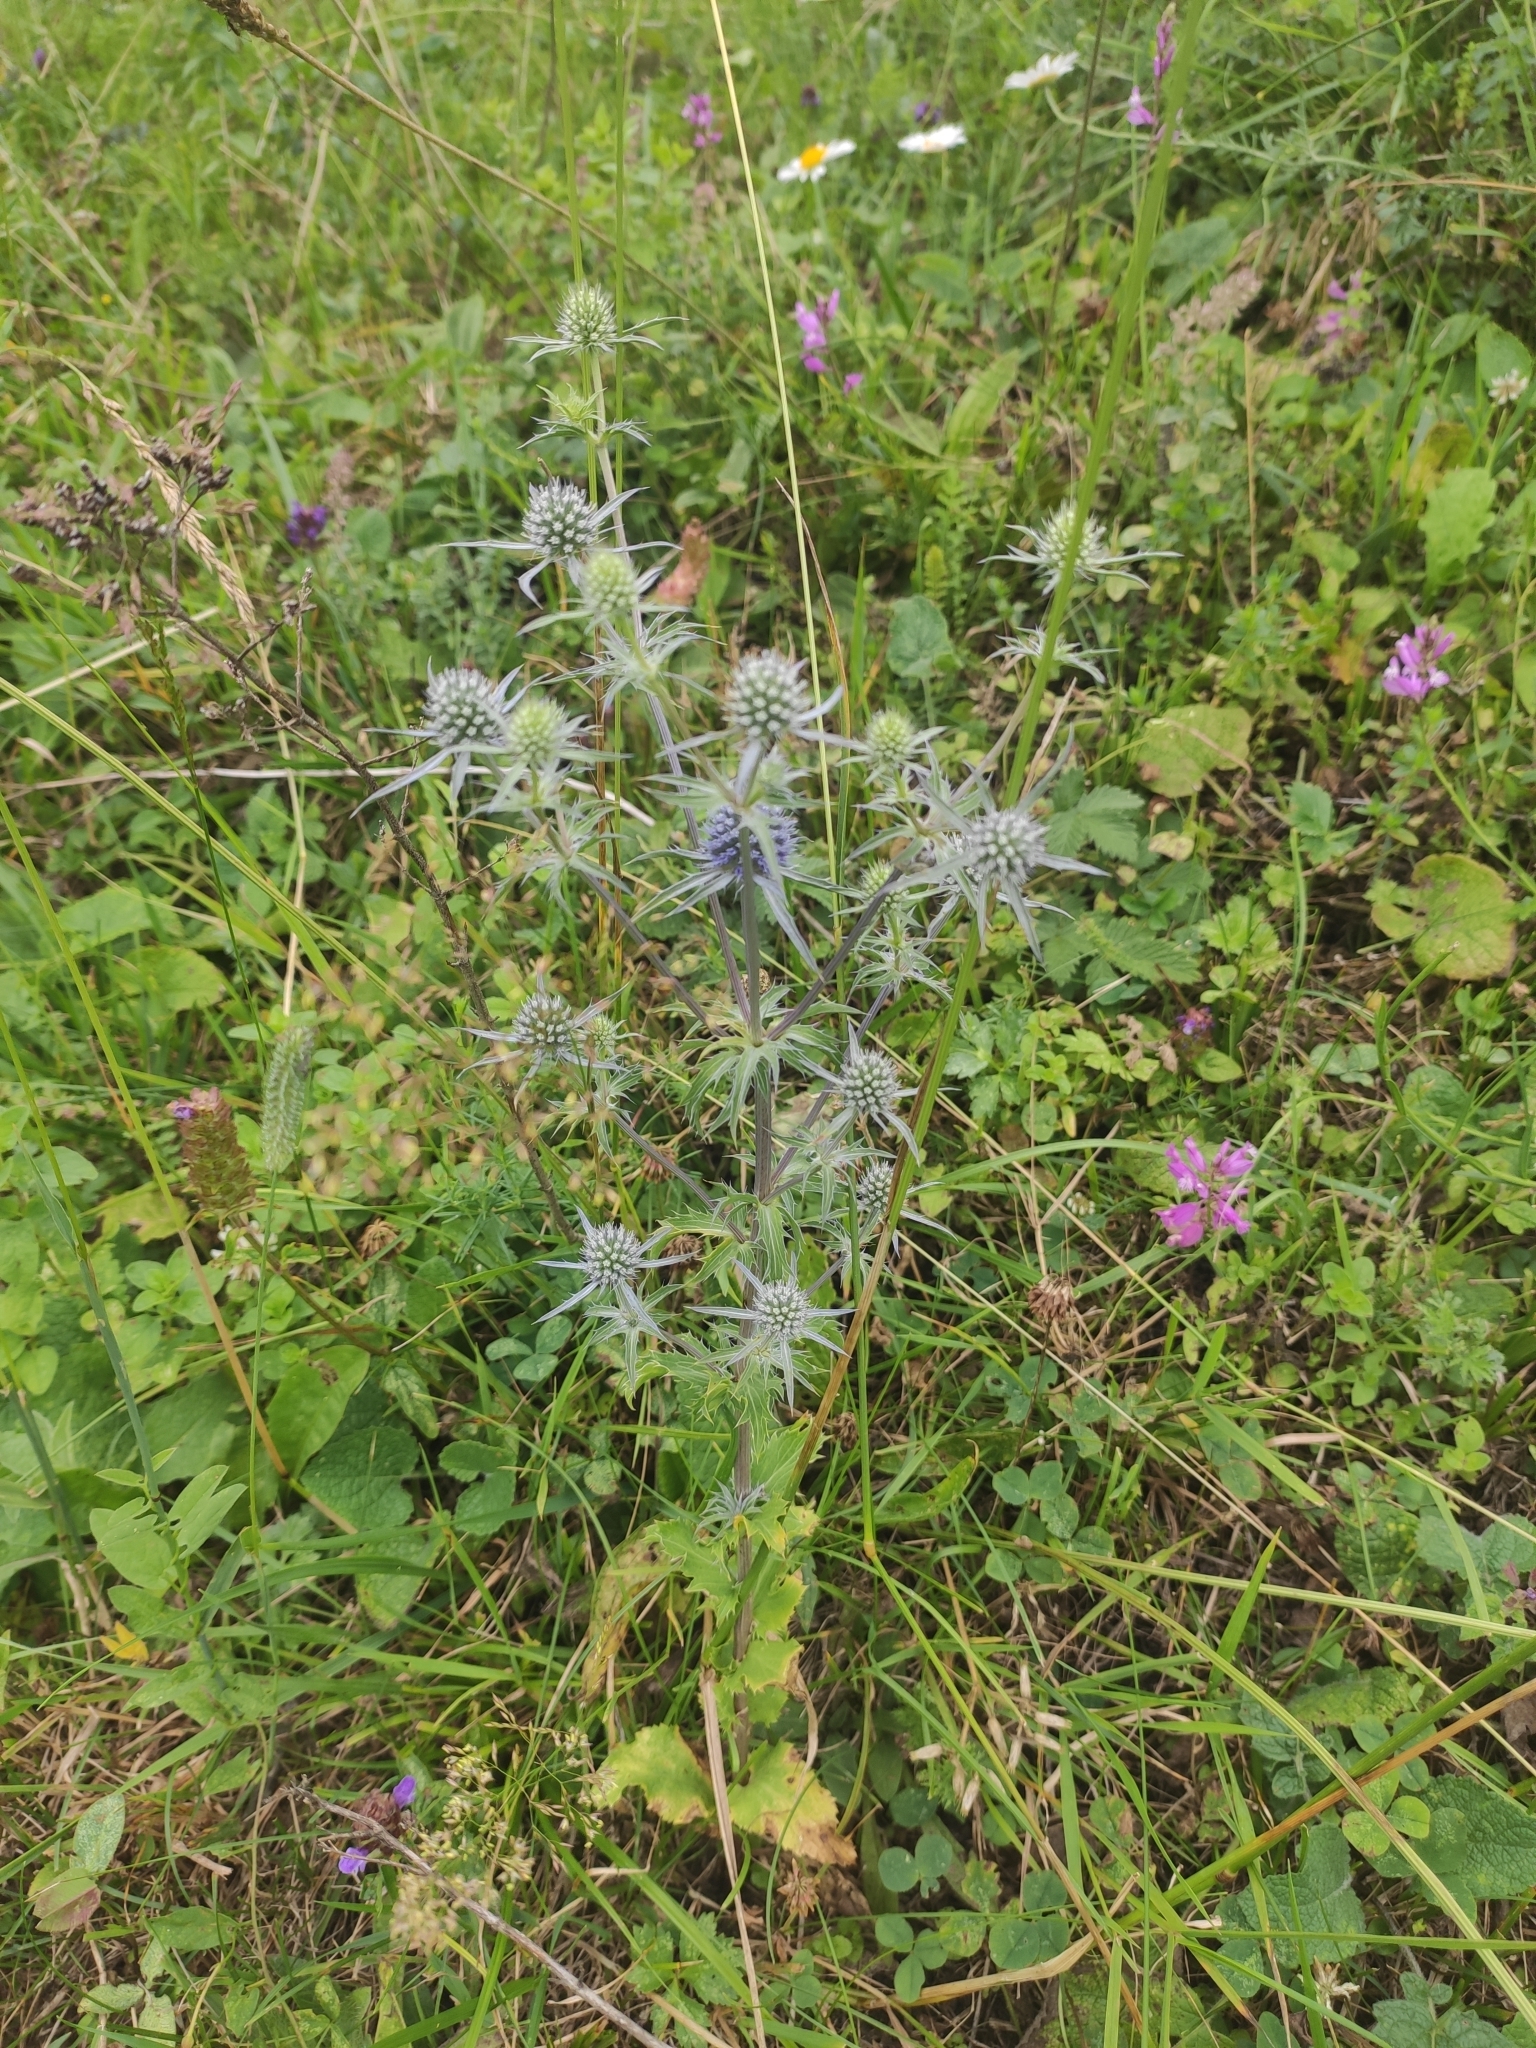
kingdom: Plantae
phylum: Tracheophyta
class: Magnoliopsida
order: Apiales
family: Apiaceae
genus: Eryngium
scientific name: Eryngium planum
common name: Blue eryngo
